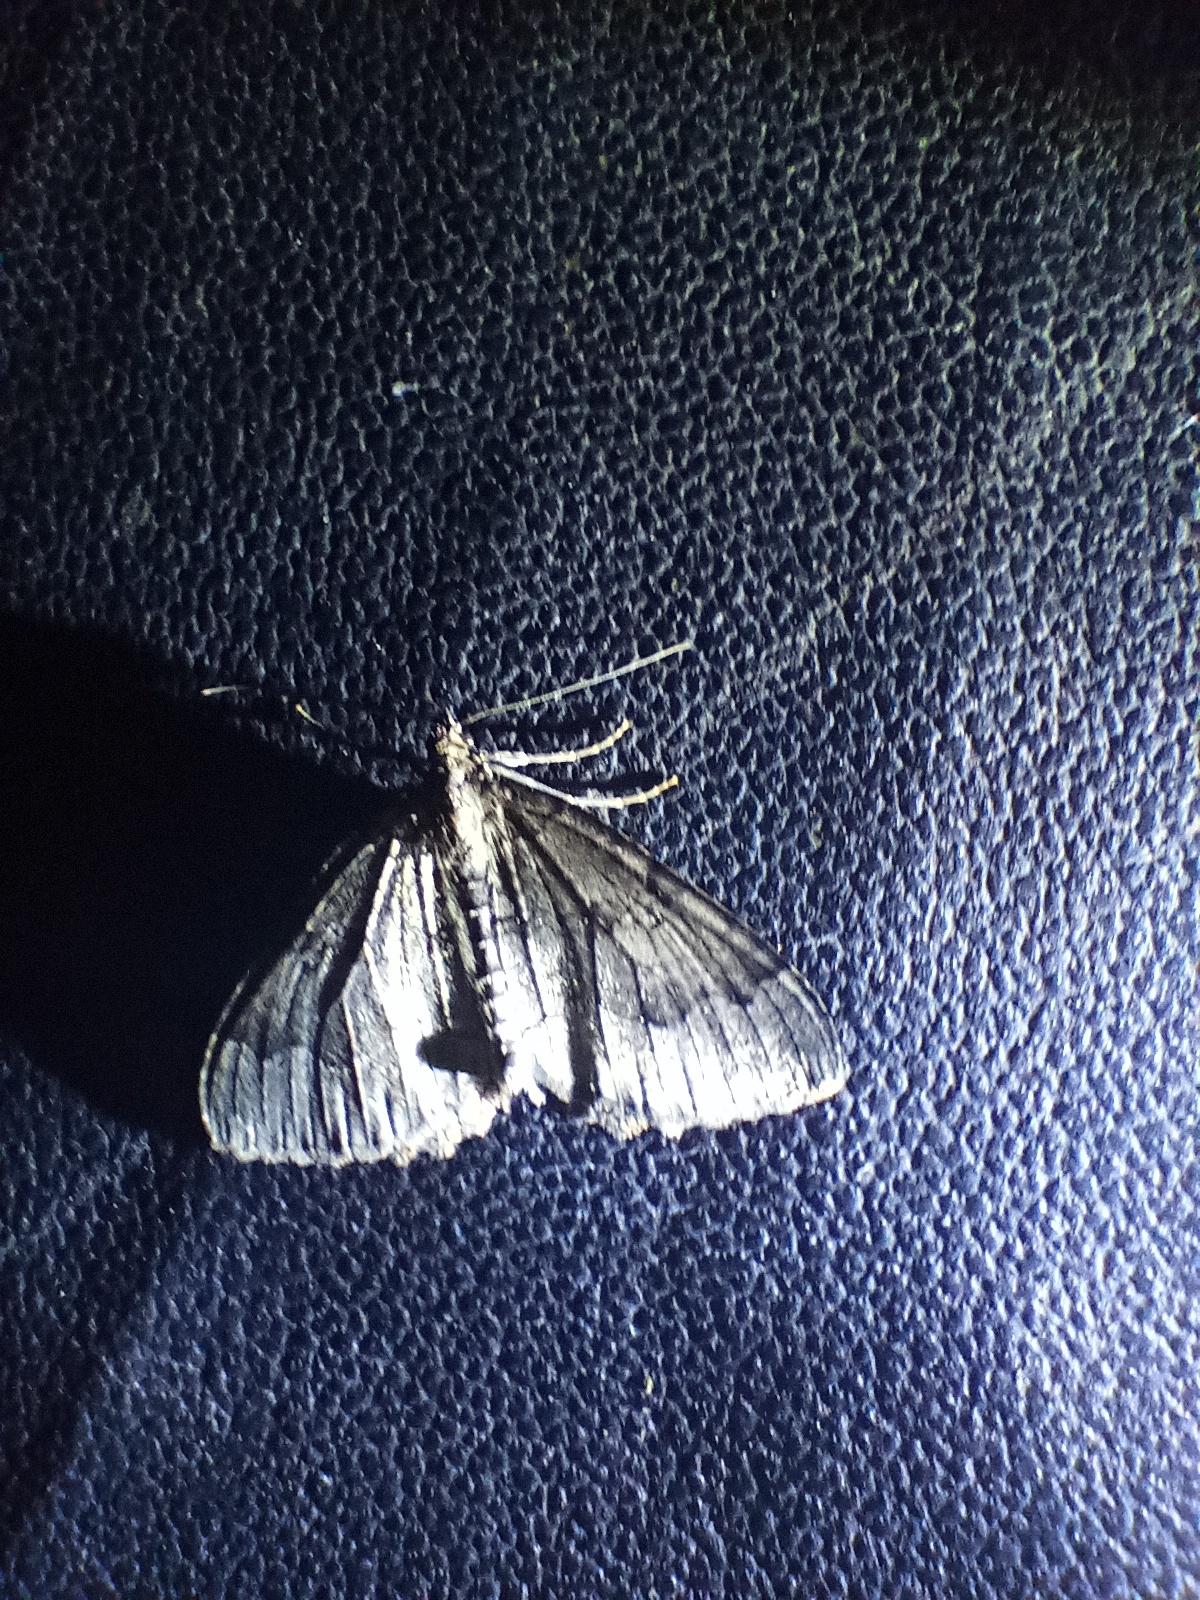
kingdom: Animalia
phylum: Arthropoda
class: Insecta
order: Lepidoptera
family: Geometridae
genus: Triphosa
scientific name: Triphosa dubitata
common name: Tissue
